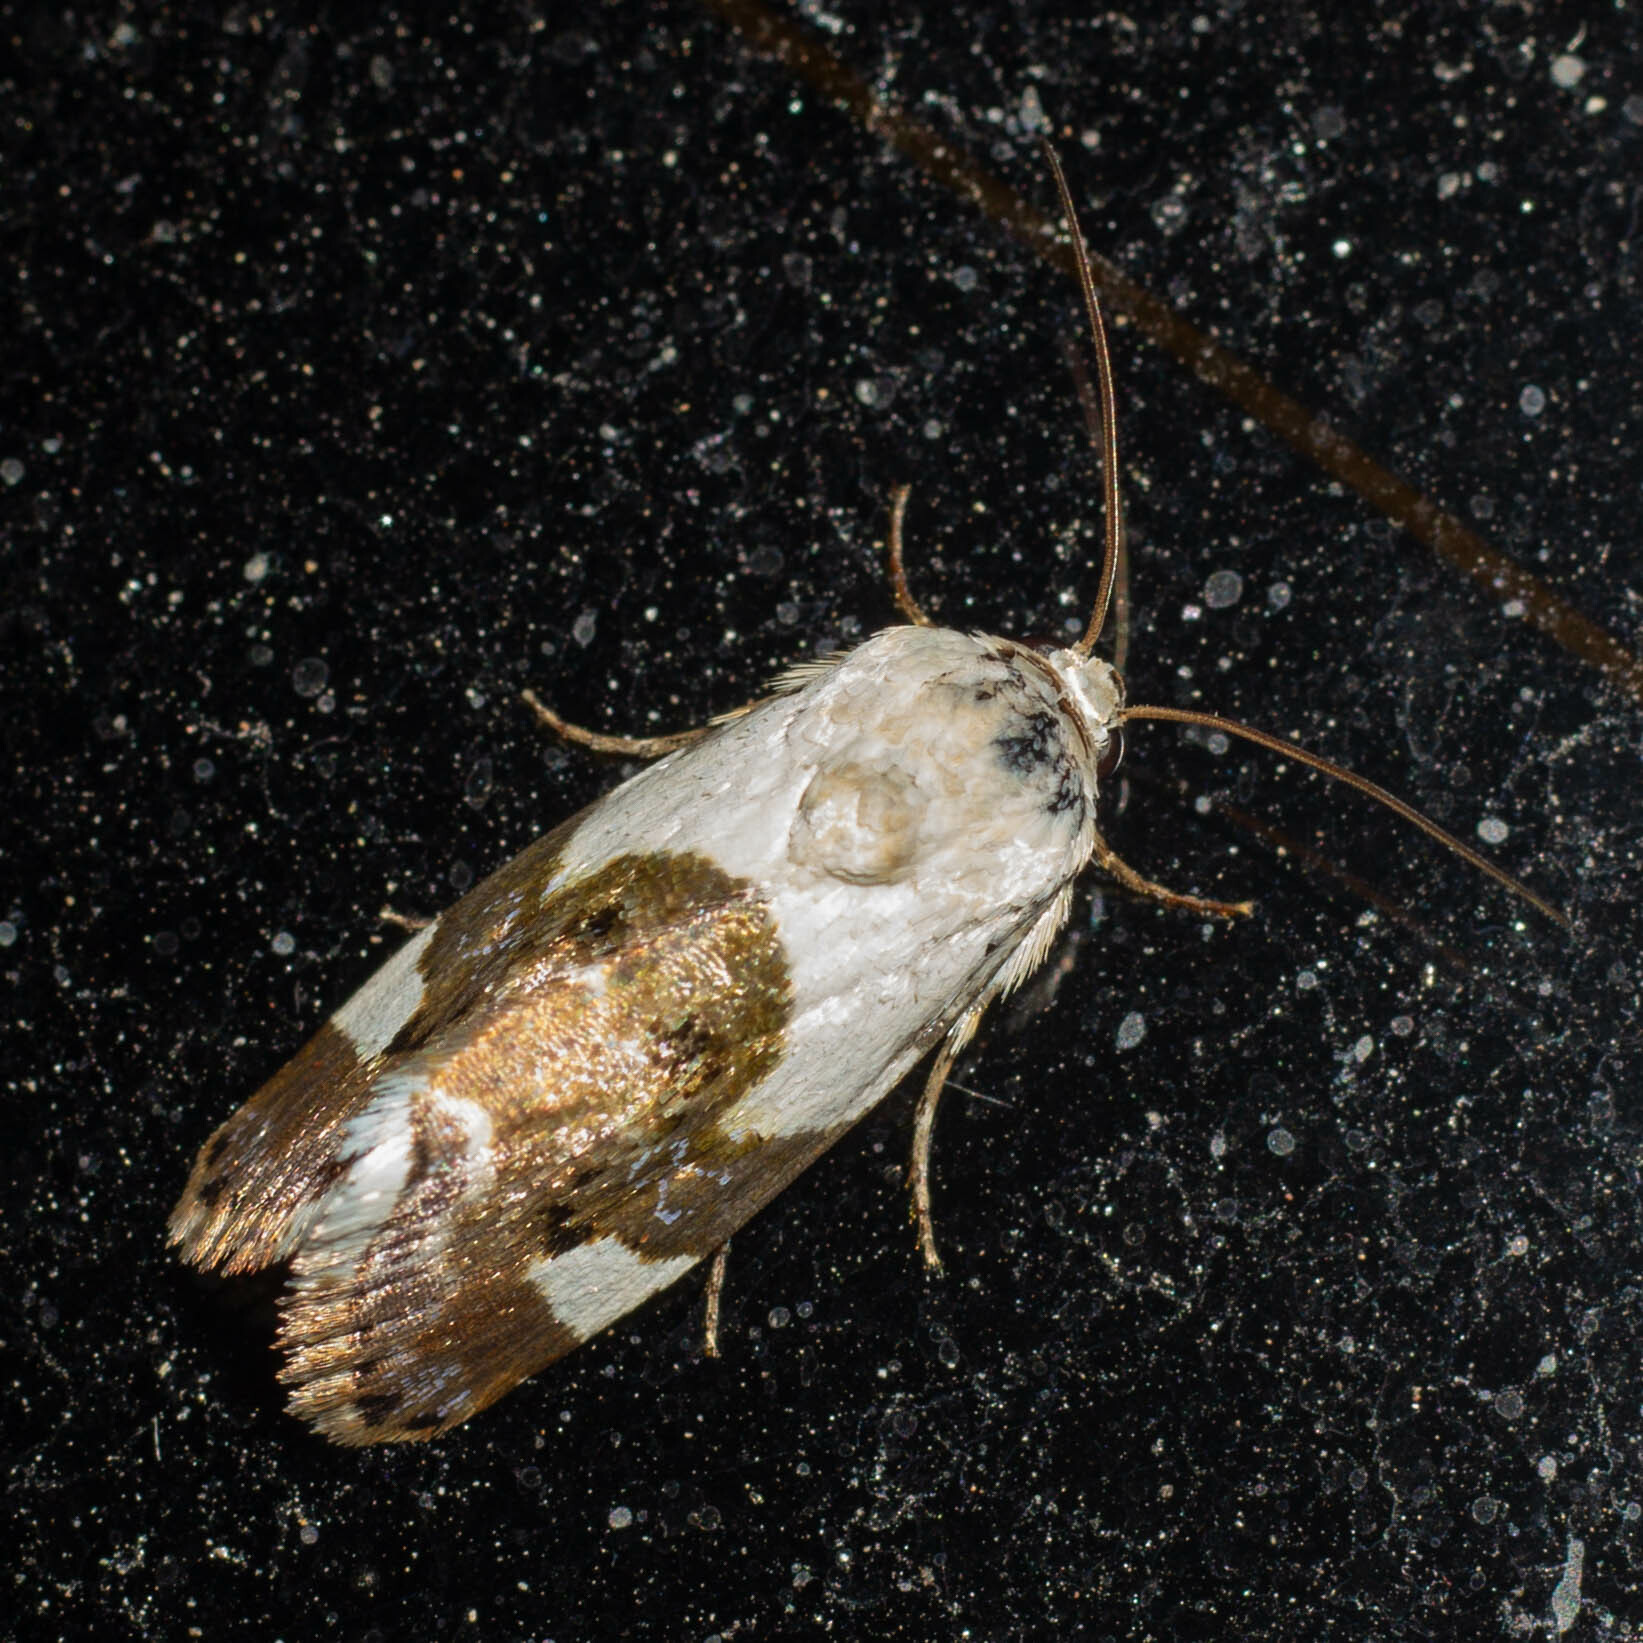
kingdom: Animalia
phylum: Arthropoda
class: Insecta
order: Lepidoptera
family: Noctuidae
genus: Acontia
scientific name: Acontia lucida
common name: Pale shoulder
